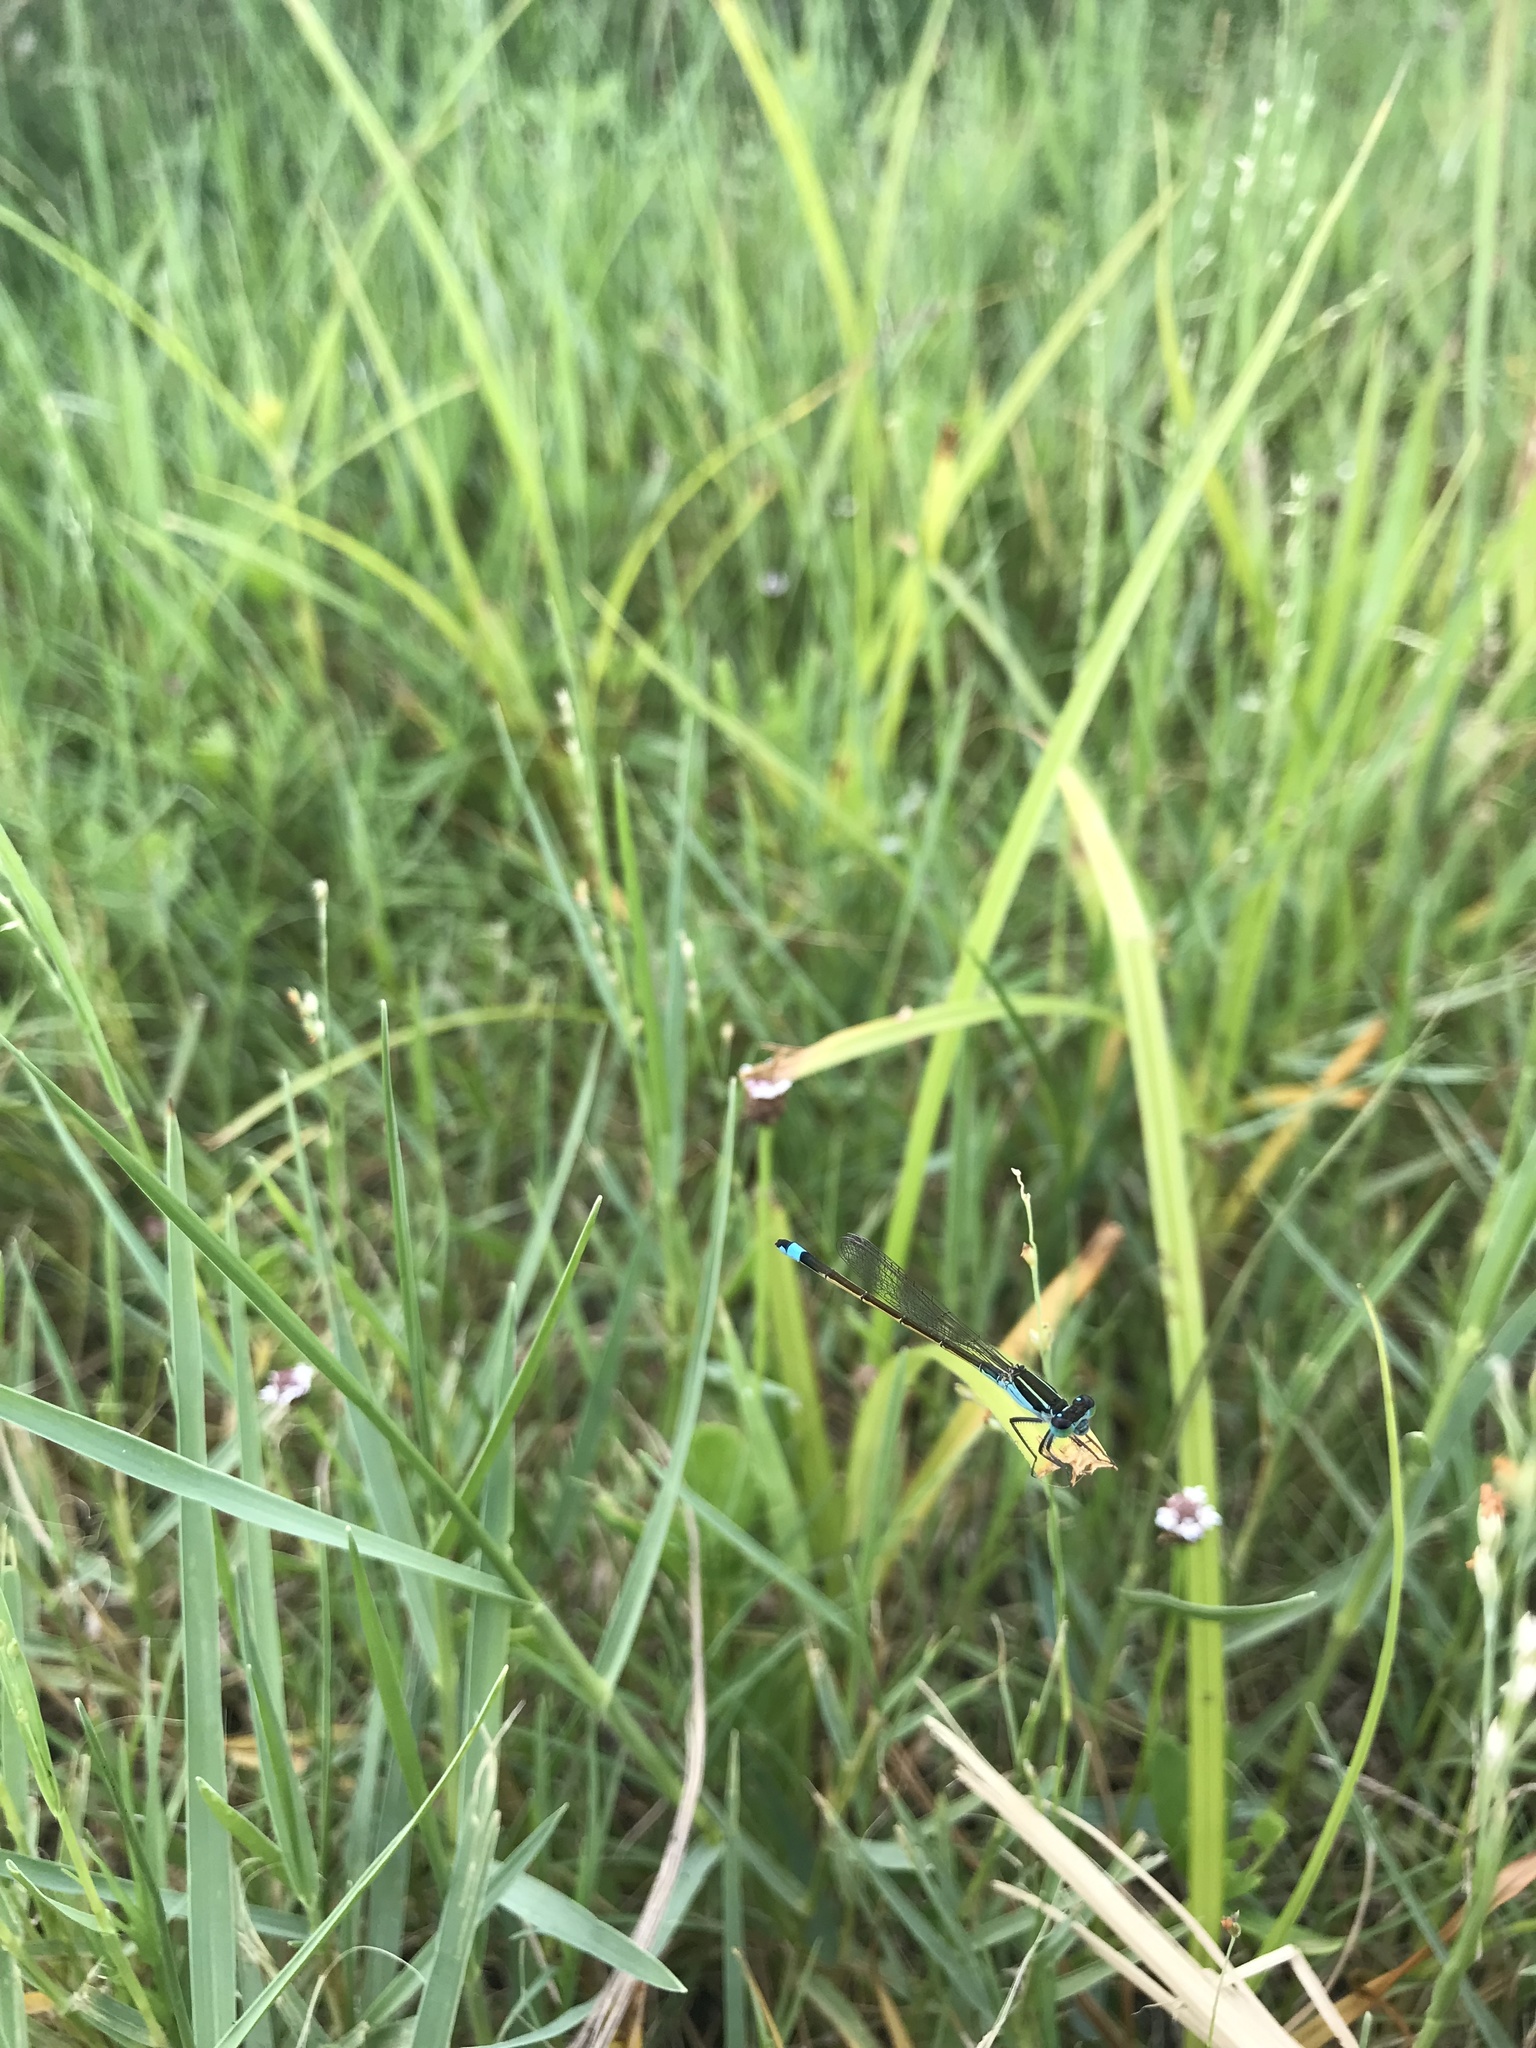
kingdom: Animalia
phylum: Arthropoda
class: Insecta
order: Odonata
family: Coenagrionidae
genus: Ischnura
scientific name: Ischnura ramburii
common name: Rambur's forktail
